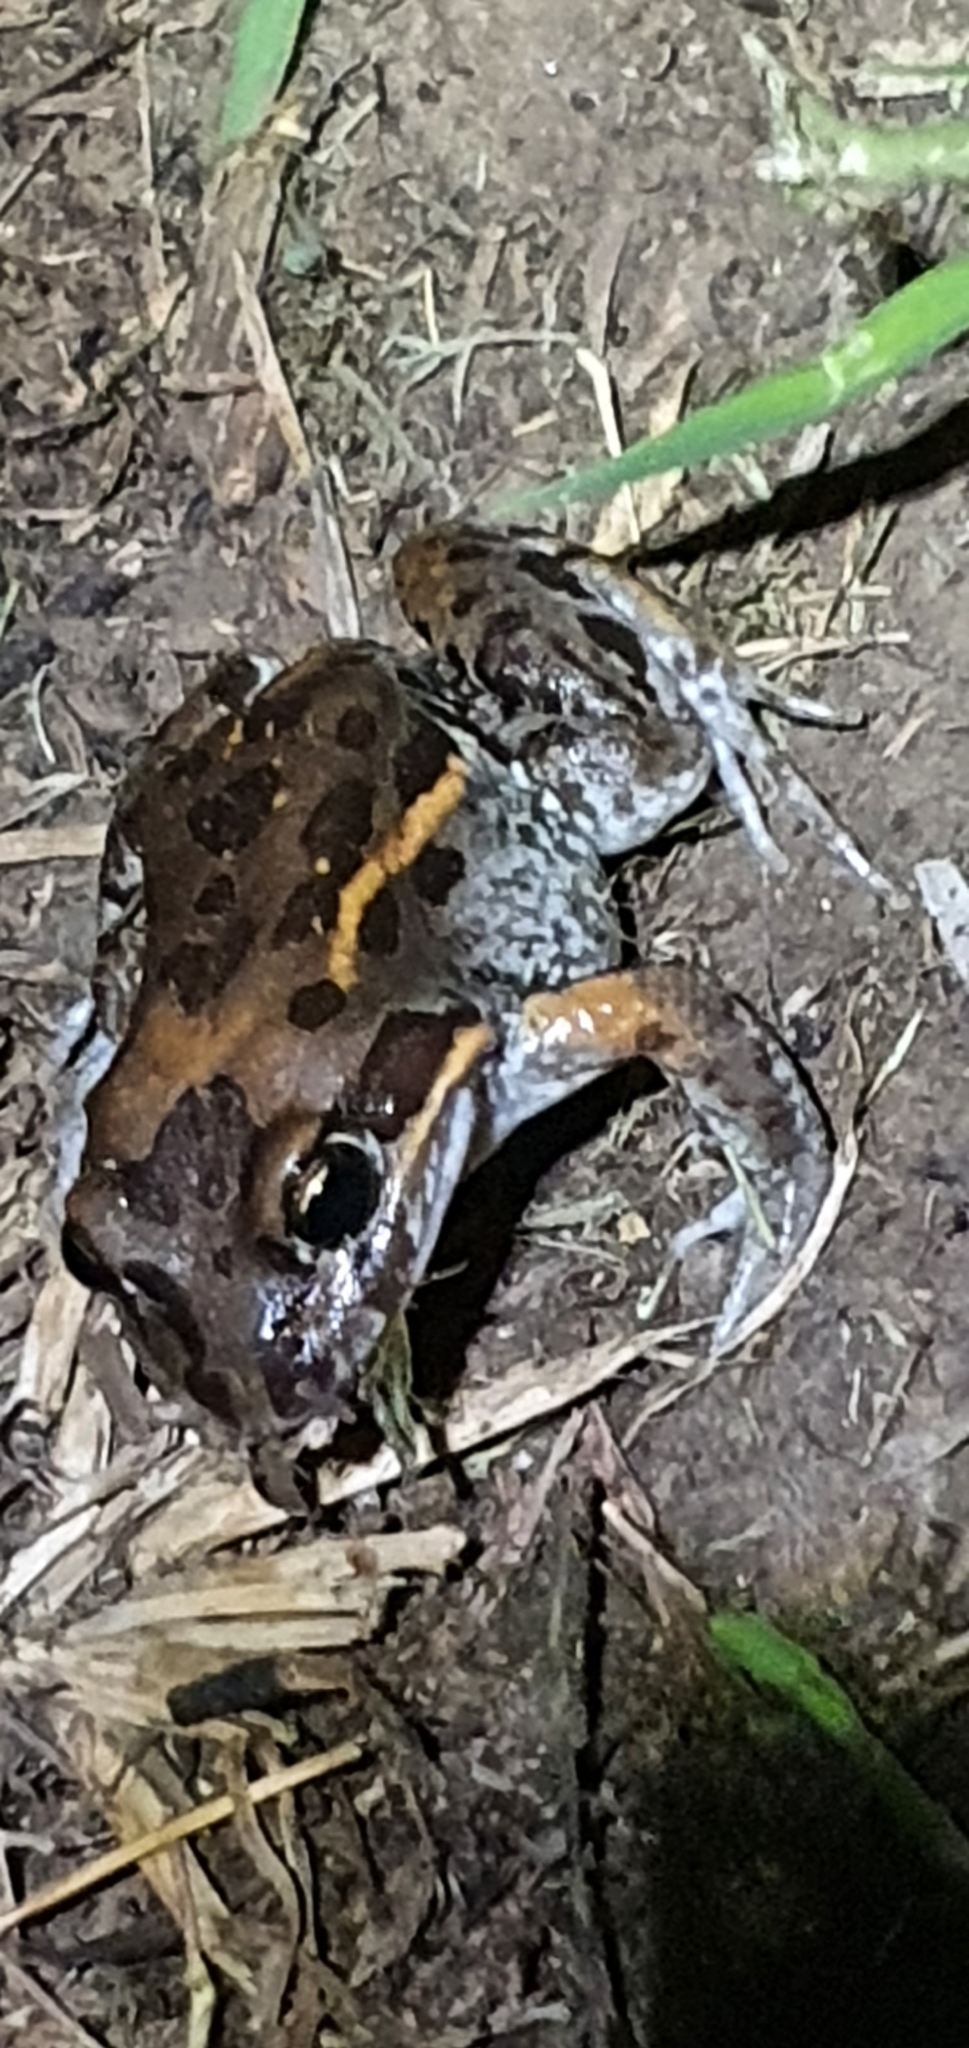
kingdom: Animalia
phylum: Chordata
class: Amphibia
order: Anura
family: Limnodynastidae
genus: Limnodynastes
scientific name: Limnodynastes salmini
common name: Salmon-striped frog
